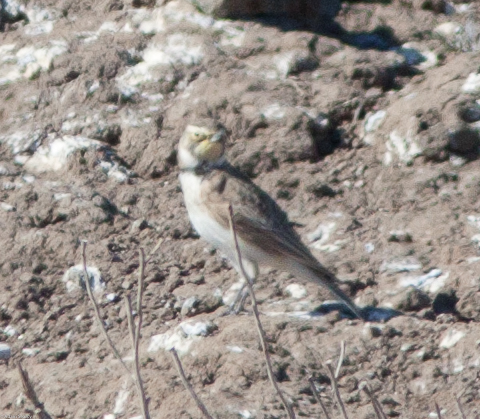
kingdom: Animalia
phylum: Chordata
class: Aves
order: Passeriformes
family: Alaudidae
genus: Eremophila
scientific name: Eremophila alpestris
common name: Horned lark
